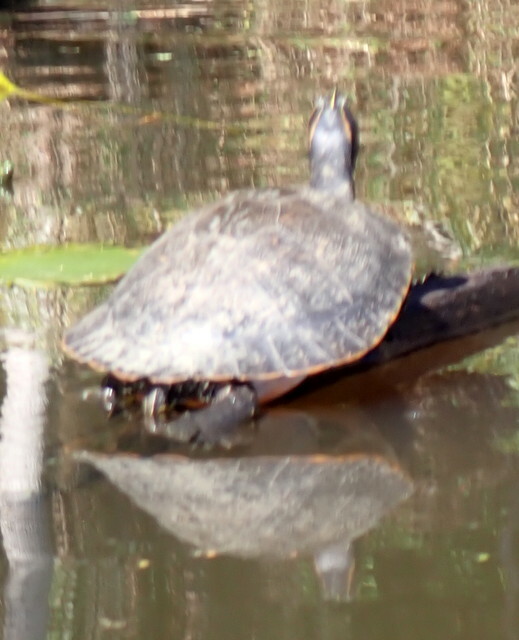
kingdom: Animalia
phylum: Chordata
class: Testudines
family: Emydidae
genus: Pseudemys
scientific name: Pseudemys concinna
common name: Eastern river cooter
